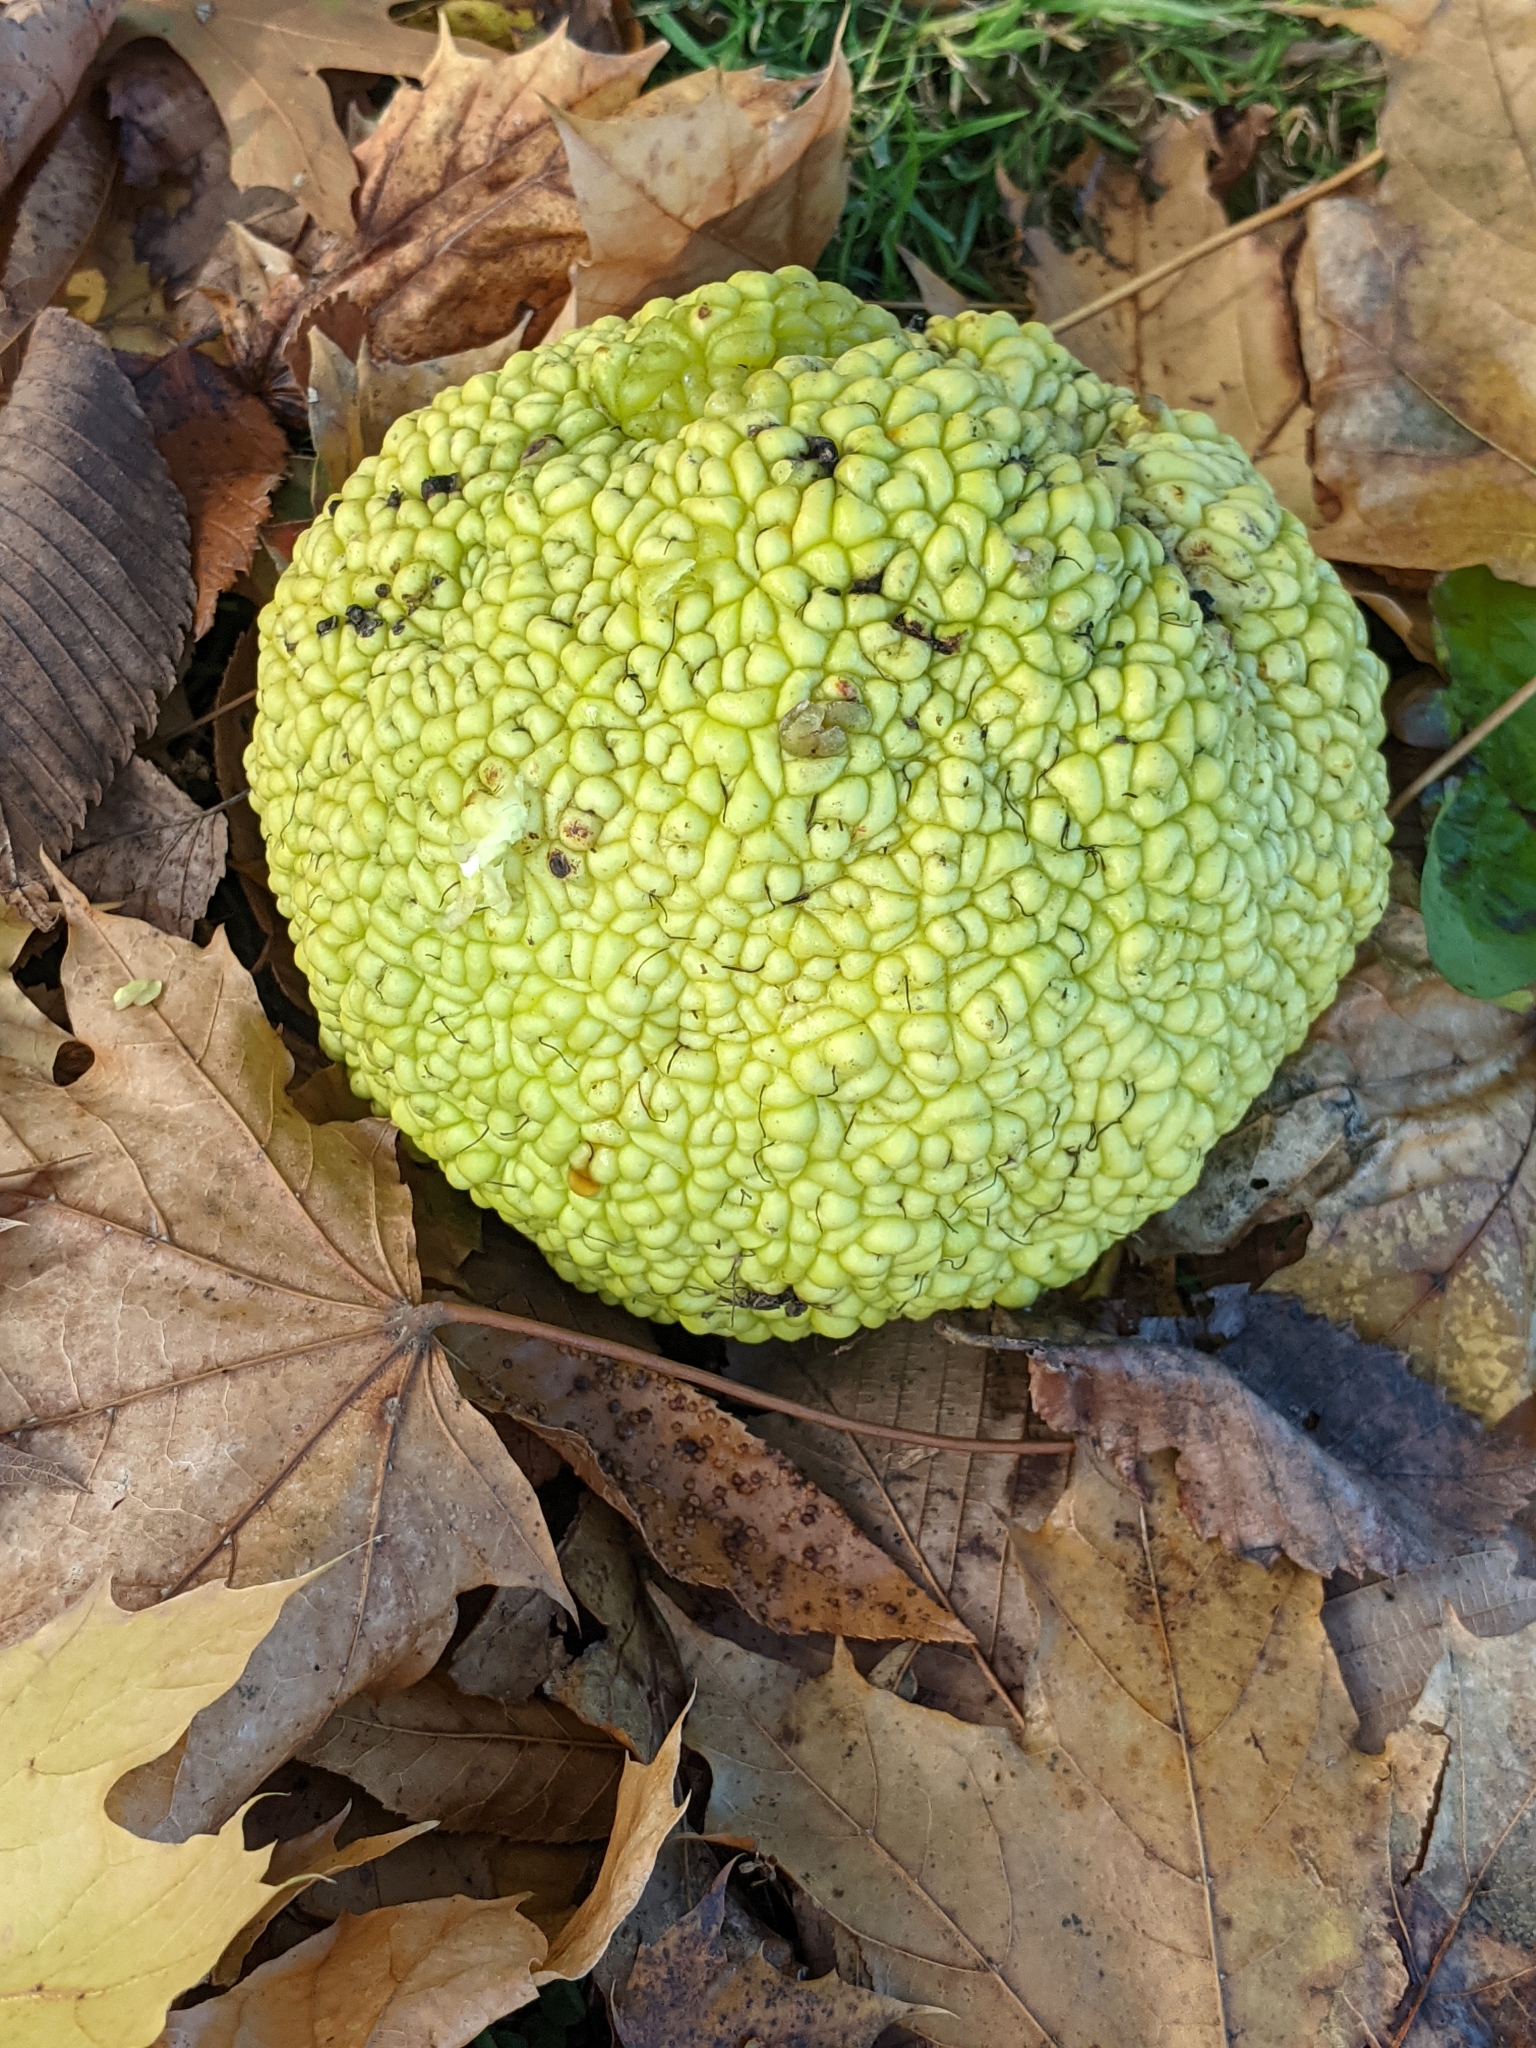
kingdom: Plantae
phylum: Tracheophyta
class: Magnoliopsida
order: Rosales
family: Moraceae
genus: Maclura
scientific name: Maclura pomifera
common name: Osage-orange
